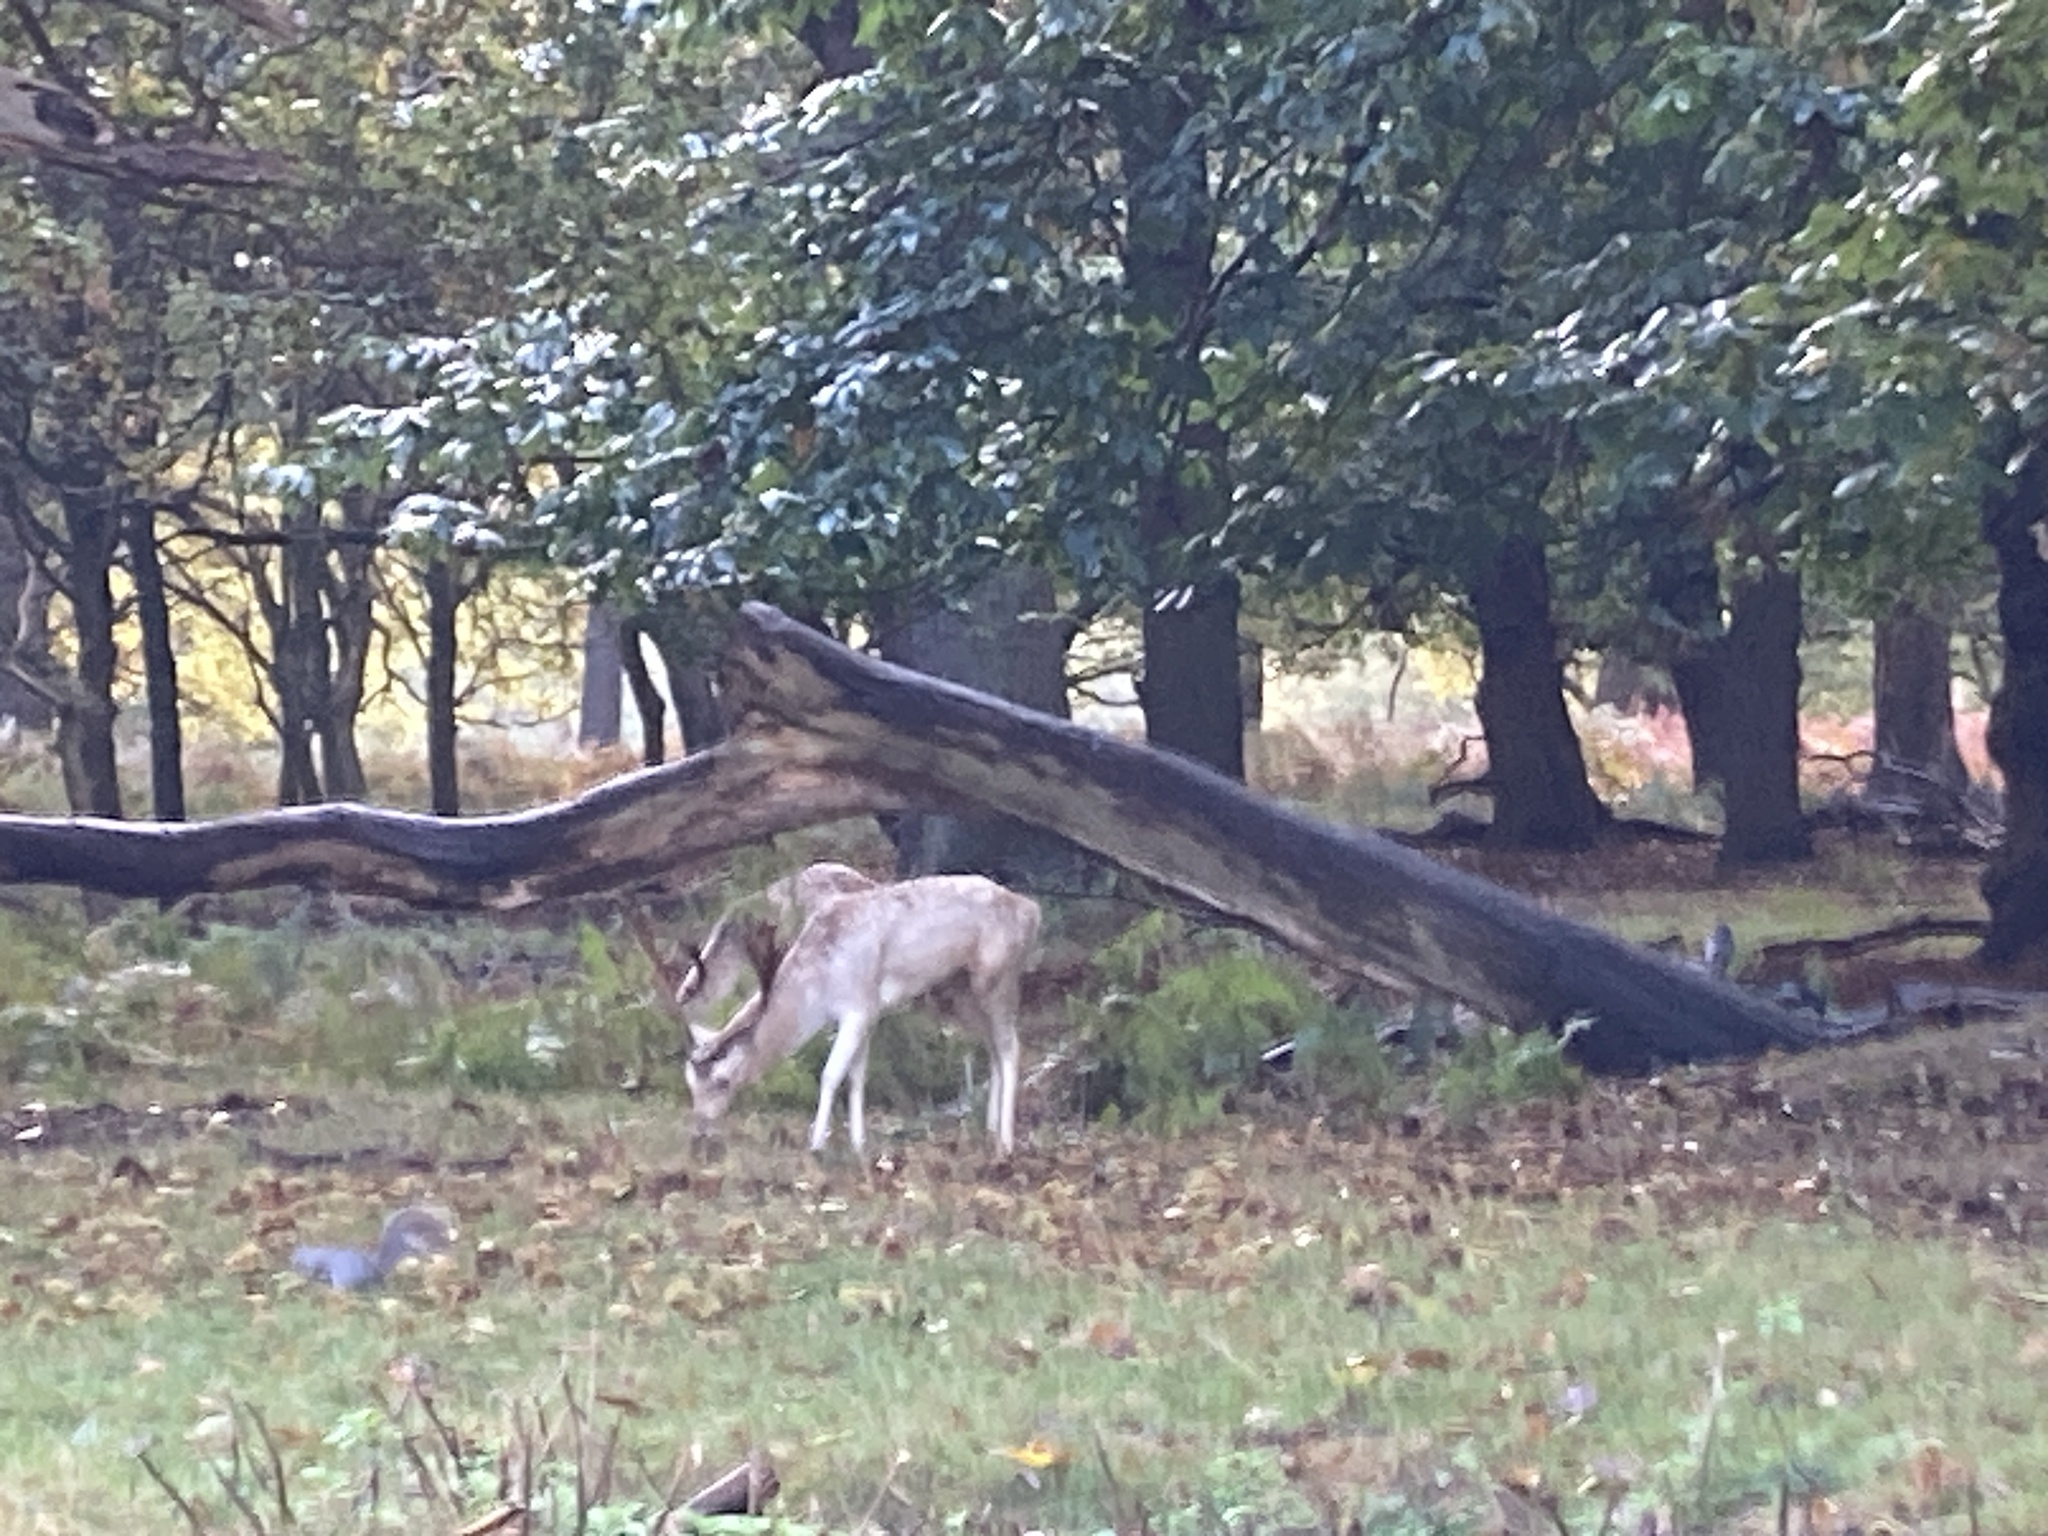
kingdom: Animalia
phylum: Chordata
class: Mammalia
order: Artiodactyla
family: Cervidae
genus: Dama
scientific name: Dama dama
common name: Fallow deer
